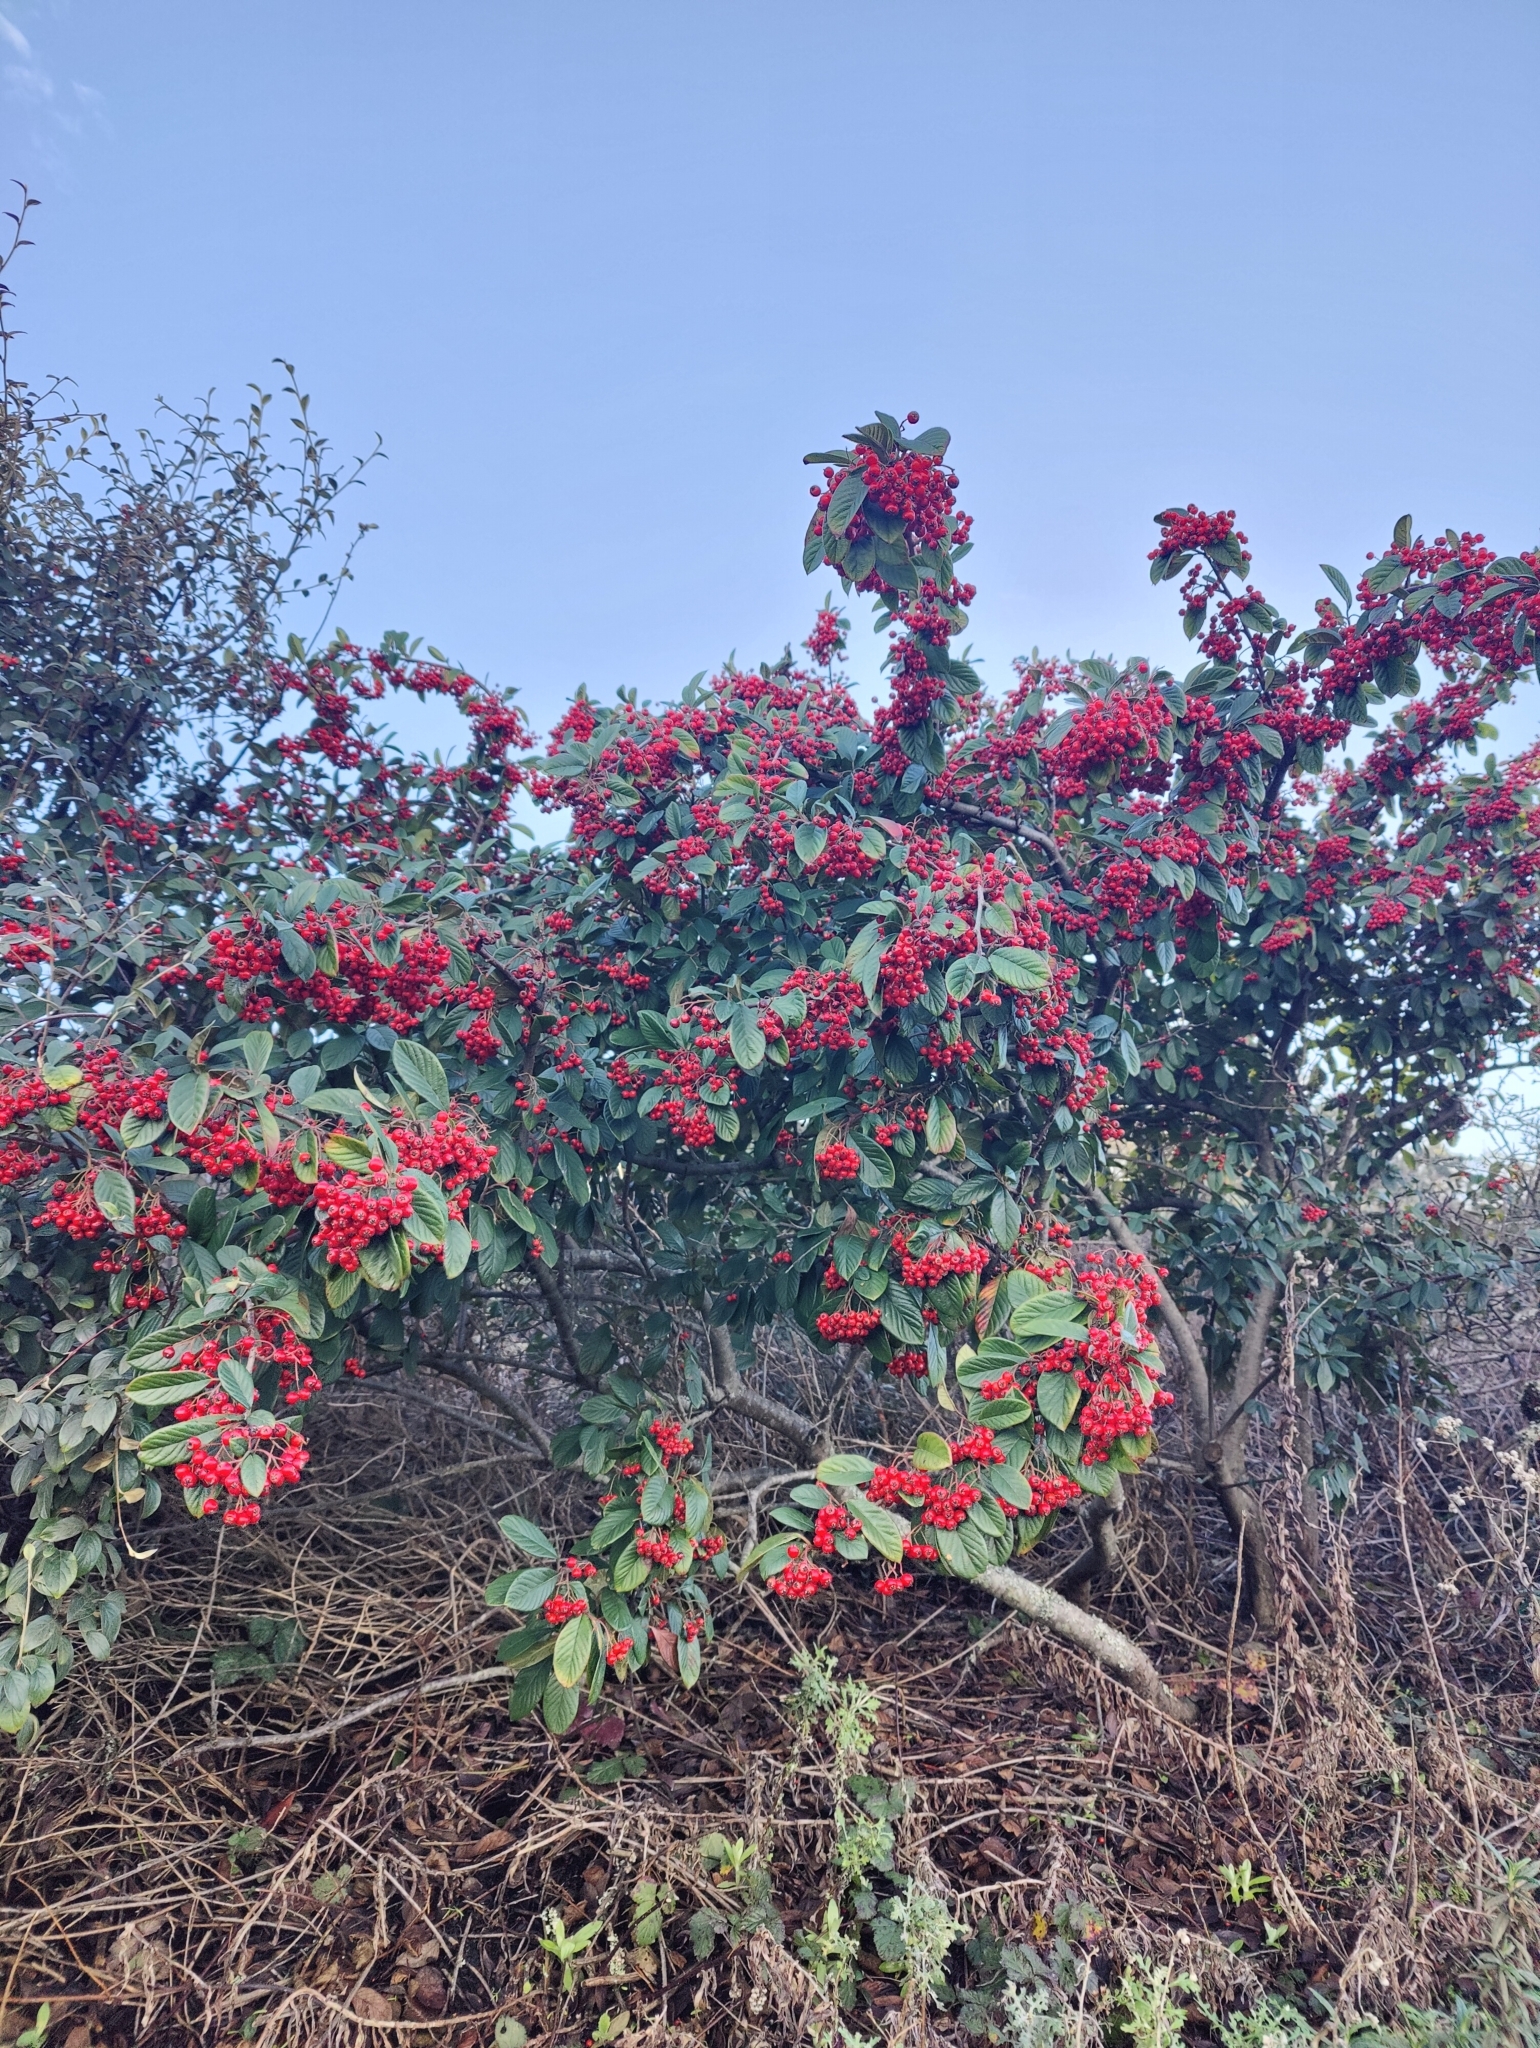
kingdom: Plantae
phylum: Tracheophyta
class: Magnoliopsida
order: Rosales
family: Rosaceae
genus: Cotoneaster
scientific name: Cotoneaster coriaceus
